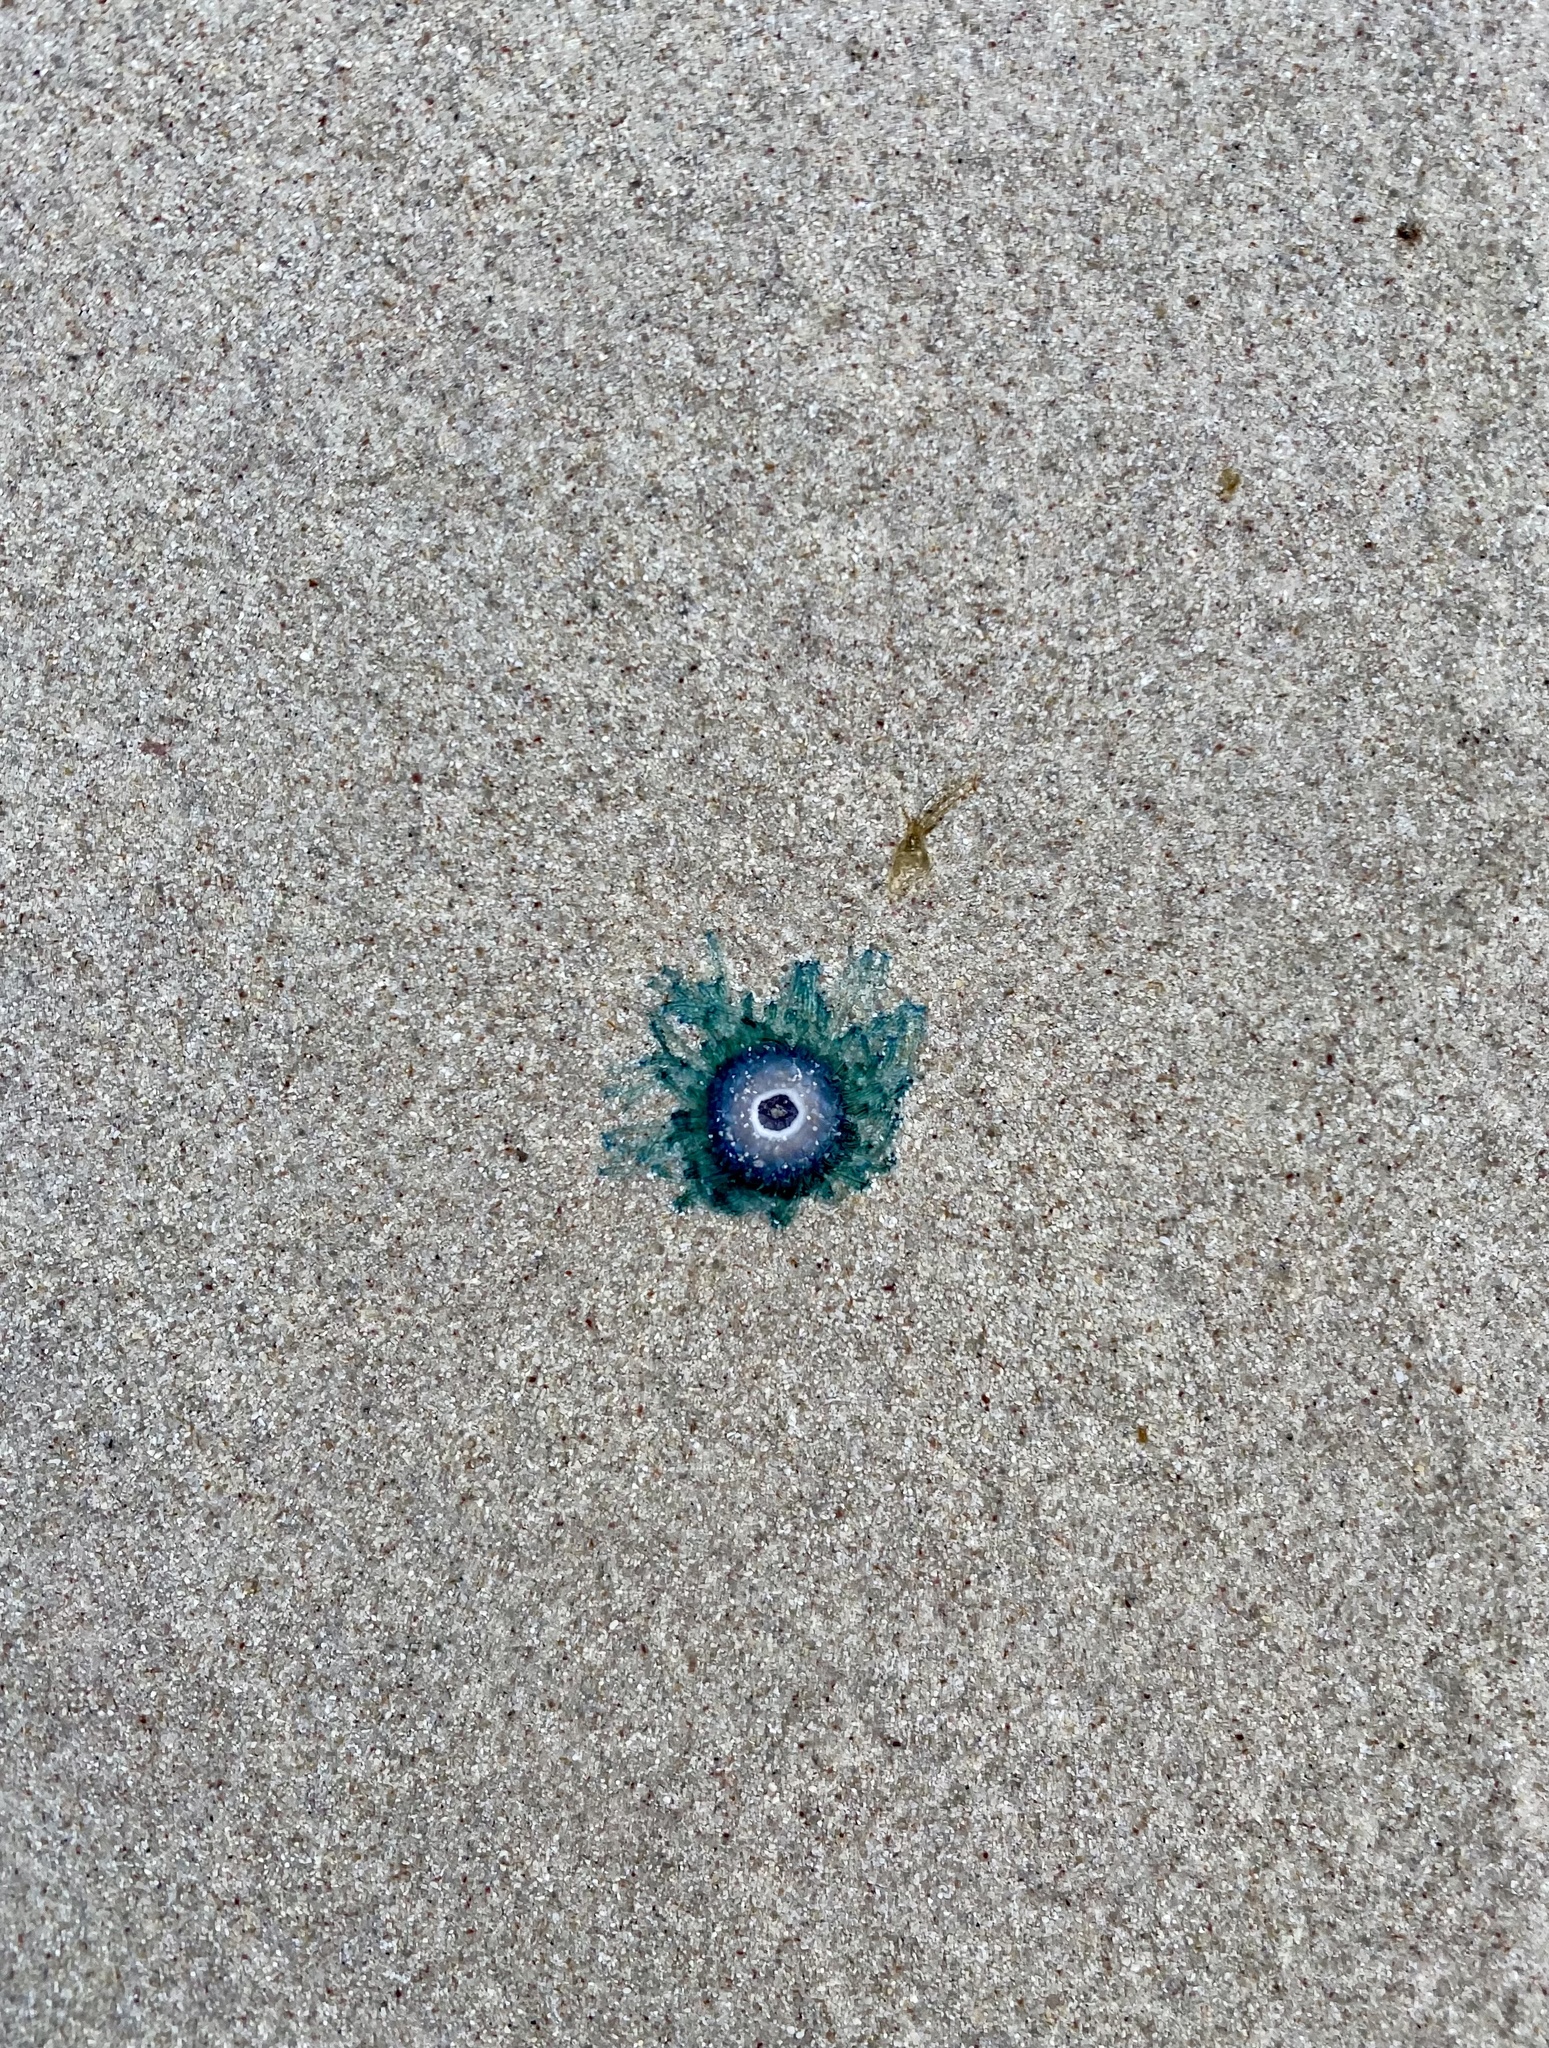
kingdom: Animalia
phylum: Cnidaria
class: Hydrozoa
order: Anthoathecata
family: Porpitidae
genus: Porpita
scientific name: Porpita porpita
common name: Blue button
